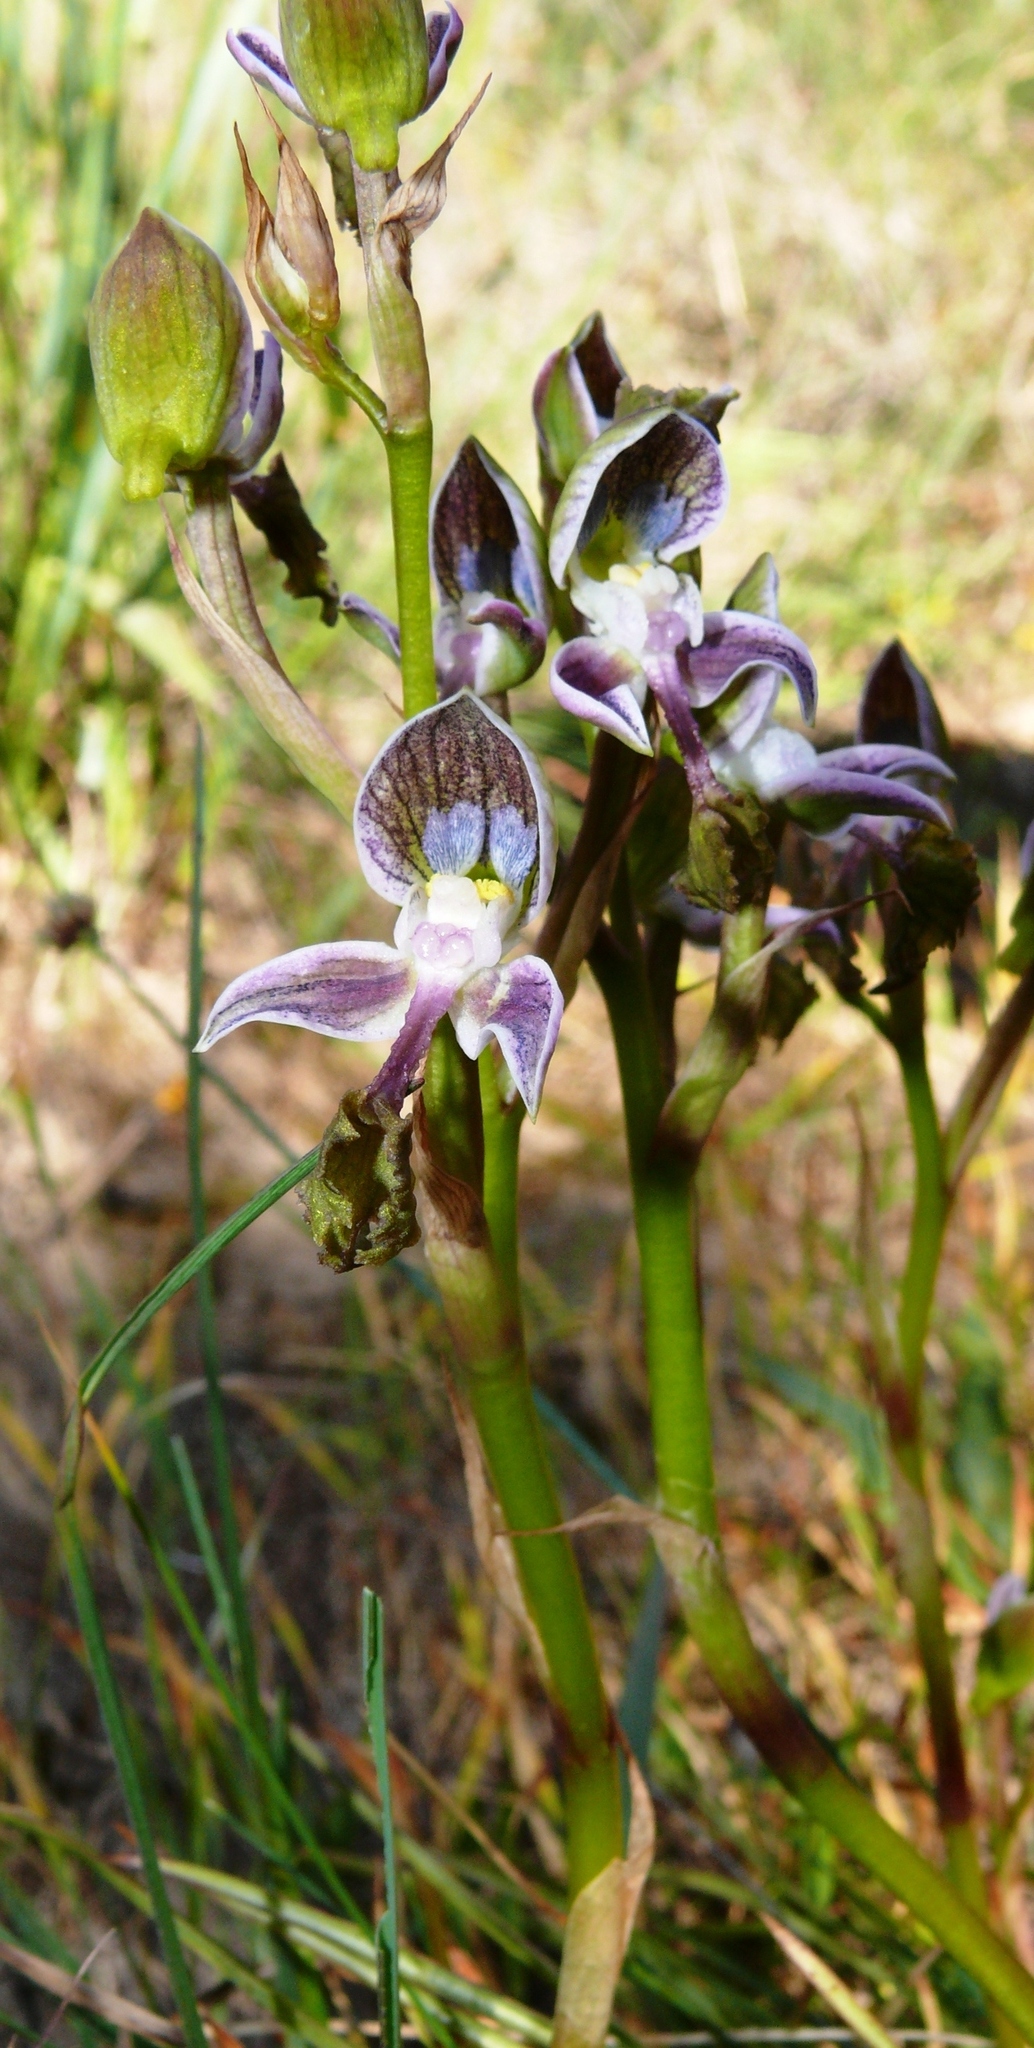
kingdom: Plantae
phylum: Tracheophyta
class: Liliopsida
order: Asparagales
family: Orchidaceae
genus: Disa
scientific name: Disa spathulata
